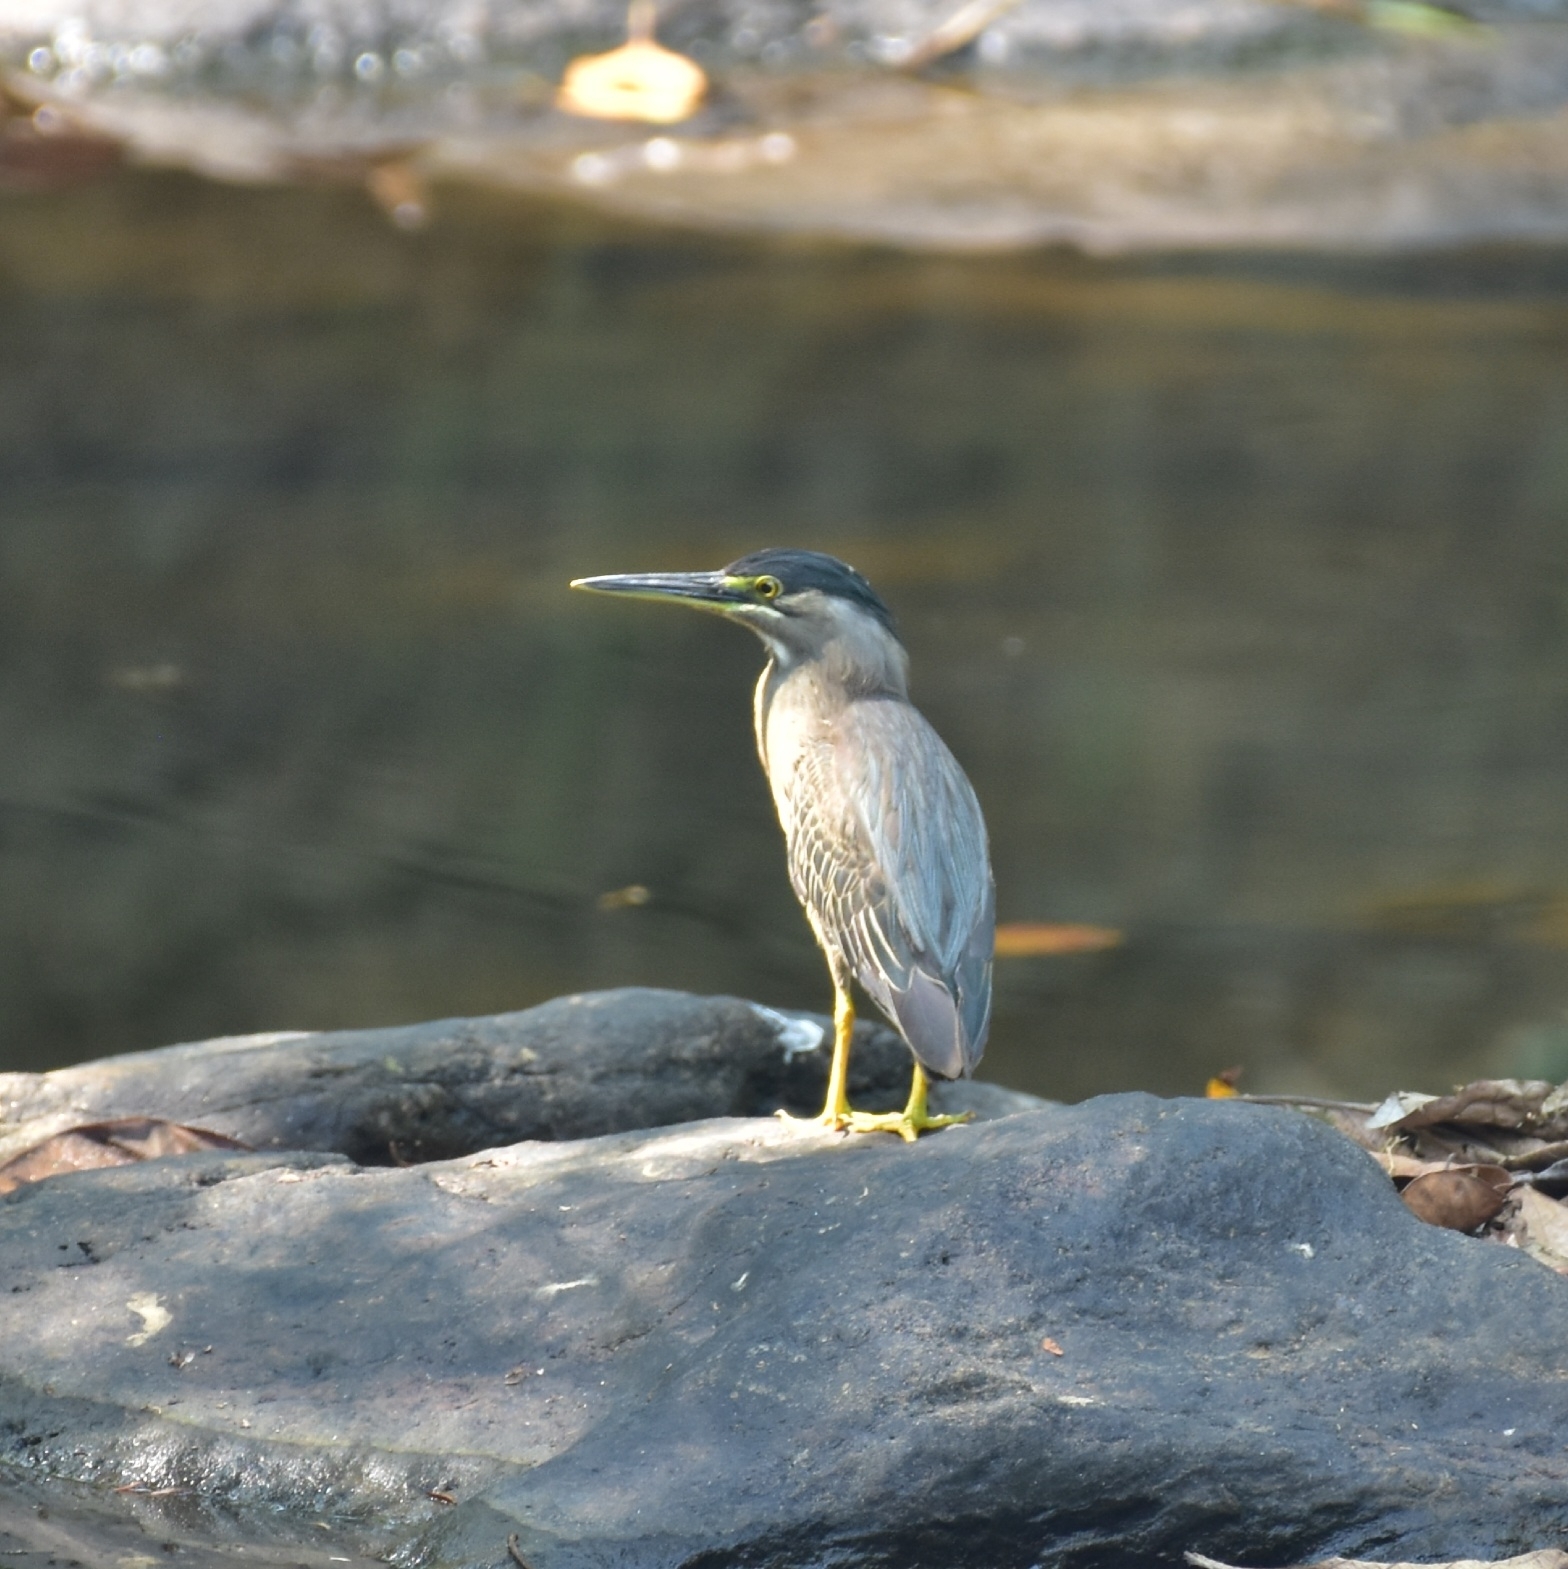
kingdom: Animalia
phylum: Chordata
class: Aves
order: Pelecaniformes
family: Ardeidae
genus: Butorides
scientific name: Butorides striata
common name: Striated heron
